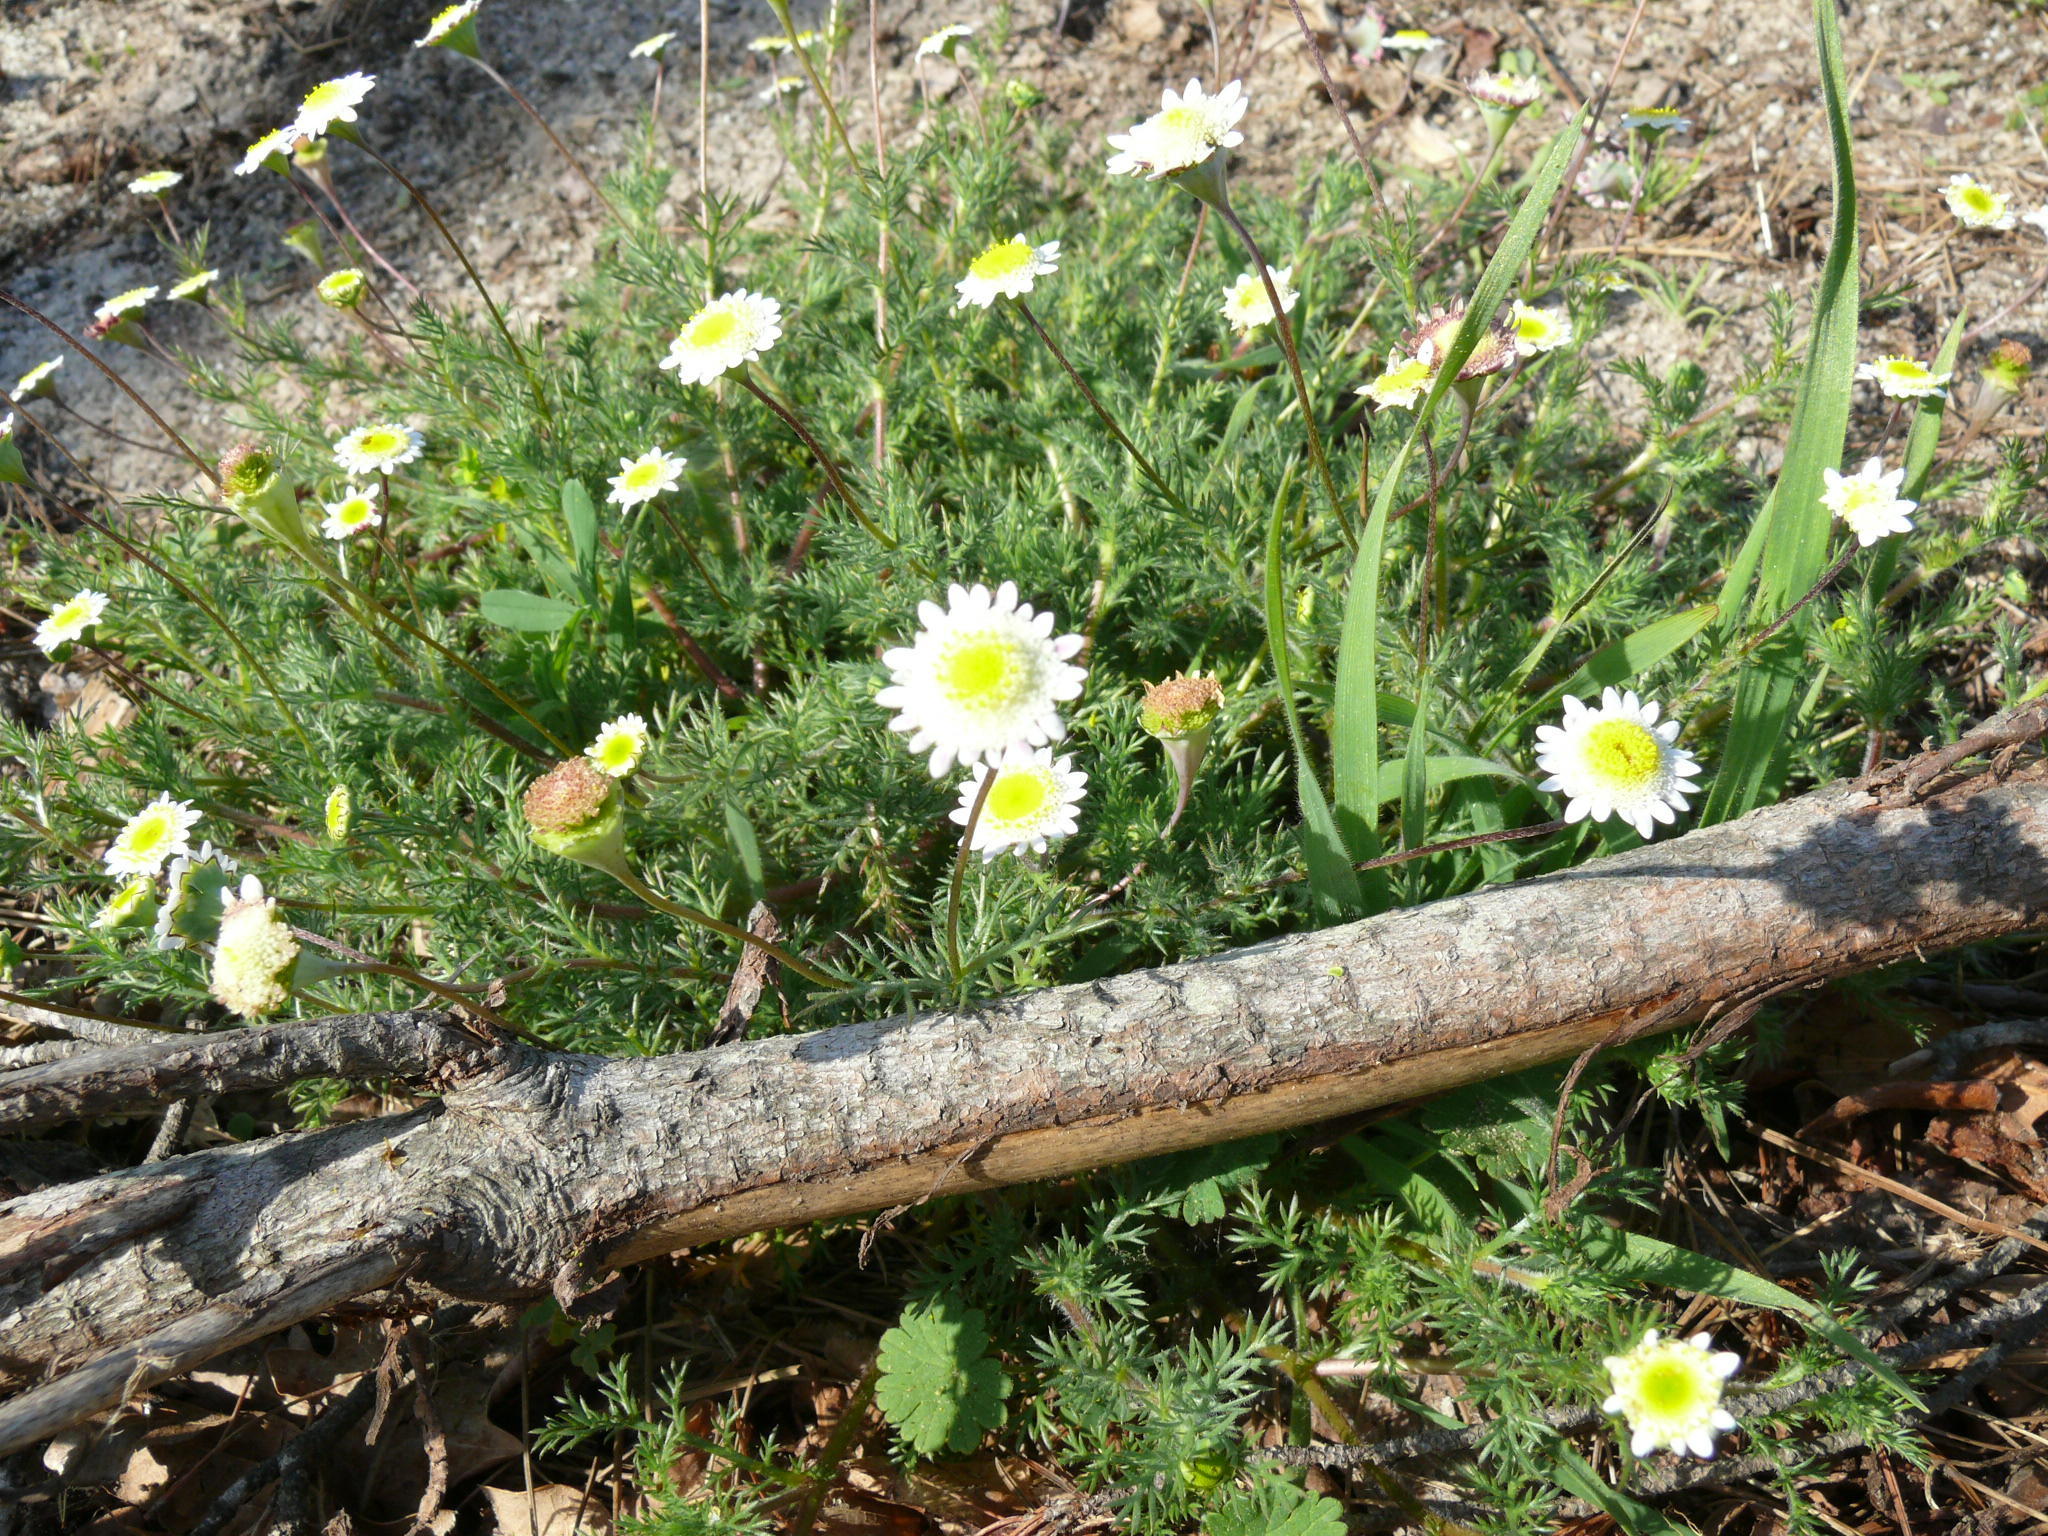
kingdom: Plantae
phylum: Tracheophyta
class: Magnoliopsida
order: Asterales
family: Asteraceae
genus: Cotula
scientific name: Cotula turbinata
